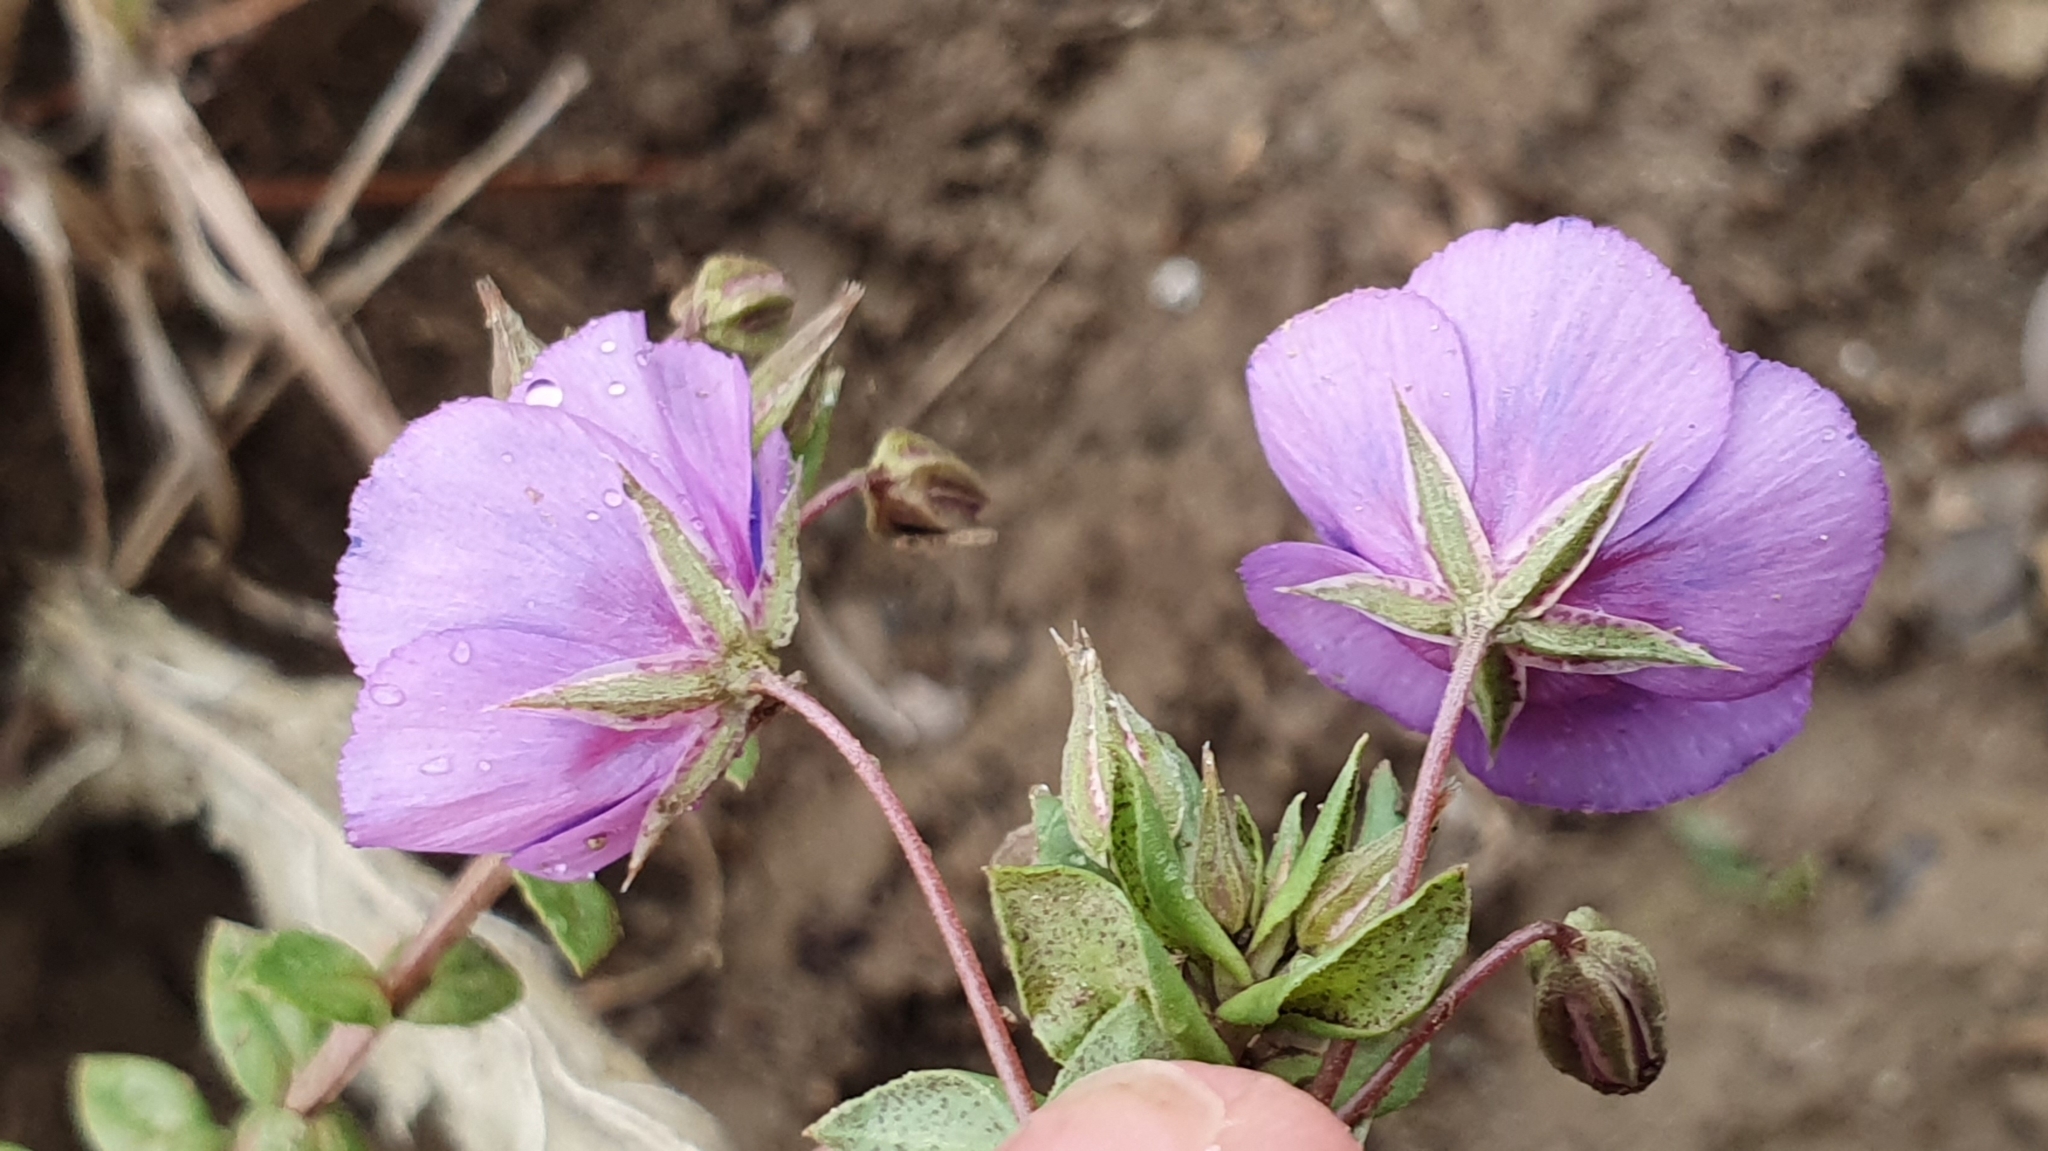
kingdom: Plantae
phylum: Tracheophyta
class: Magnoliopsida
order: Ericales
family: Primulaceae
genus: Lysimachia
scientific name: Lysimachia monelli
